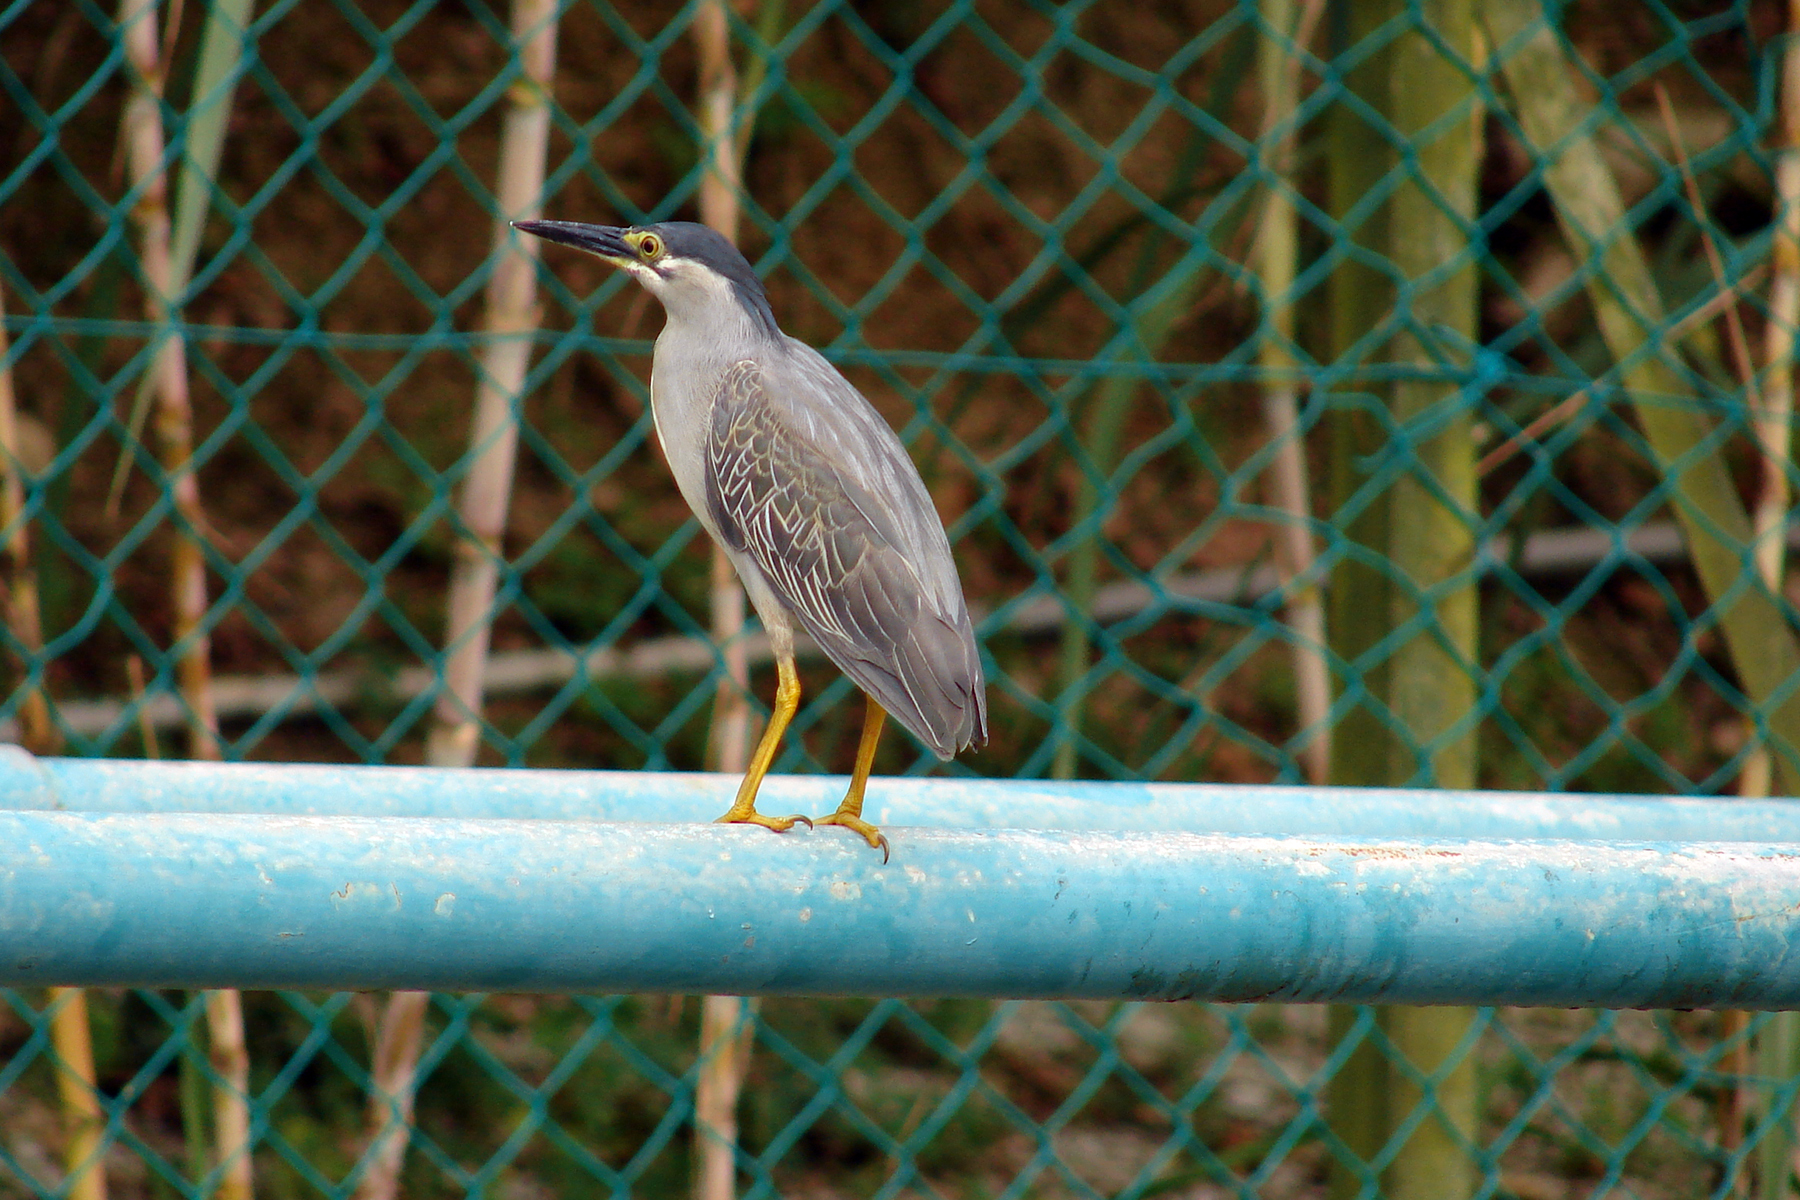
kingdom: Animalia
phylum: Chordata
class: Aves
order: Pelecaniformes
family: Ardeidae
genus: Butorides
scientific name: Butorides striata
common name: Striated heron
